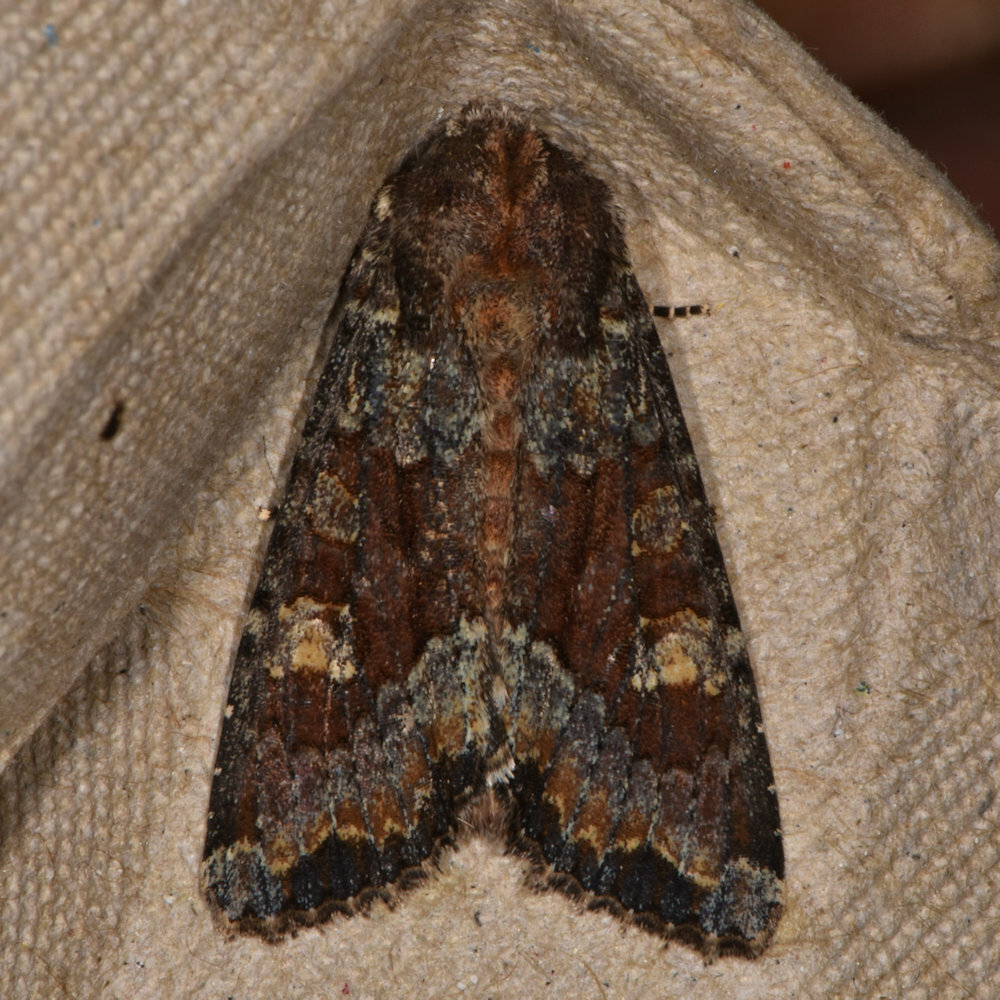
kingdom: Animalia
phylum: Arthropoda
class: Insecta
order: Lepidoptera
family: Noctuidae
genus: Apamea
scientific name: Apamea amputatrix
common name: Yellow-headed cutworm moth
